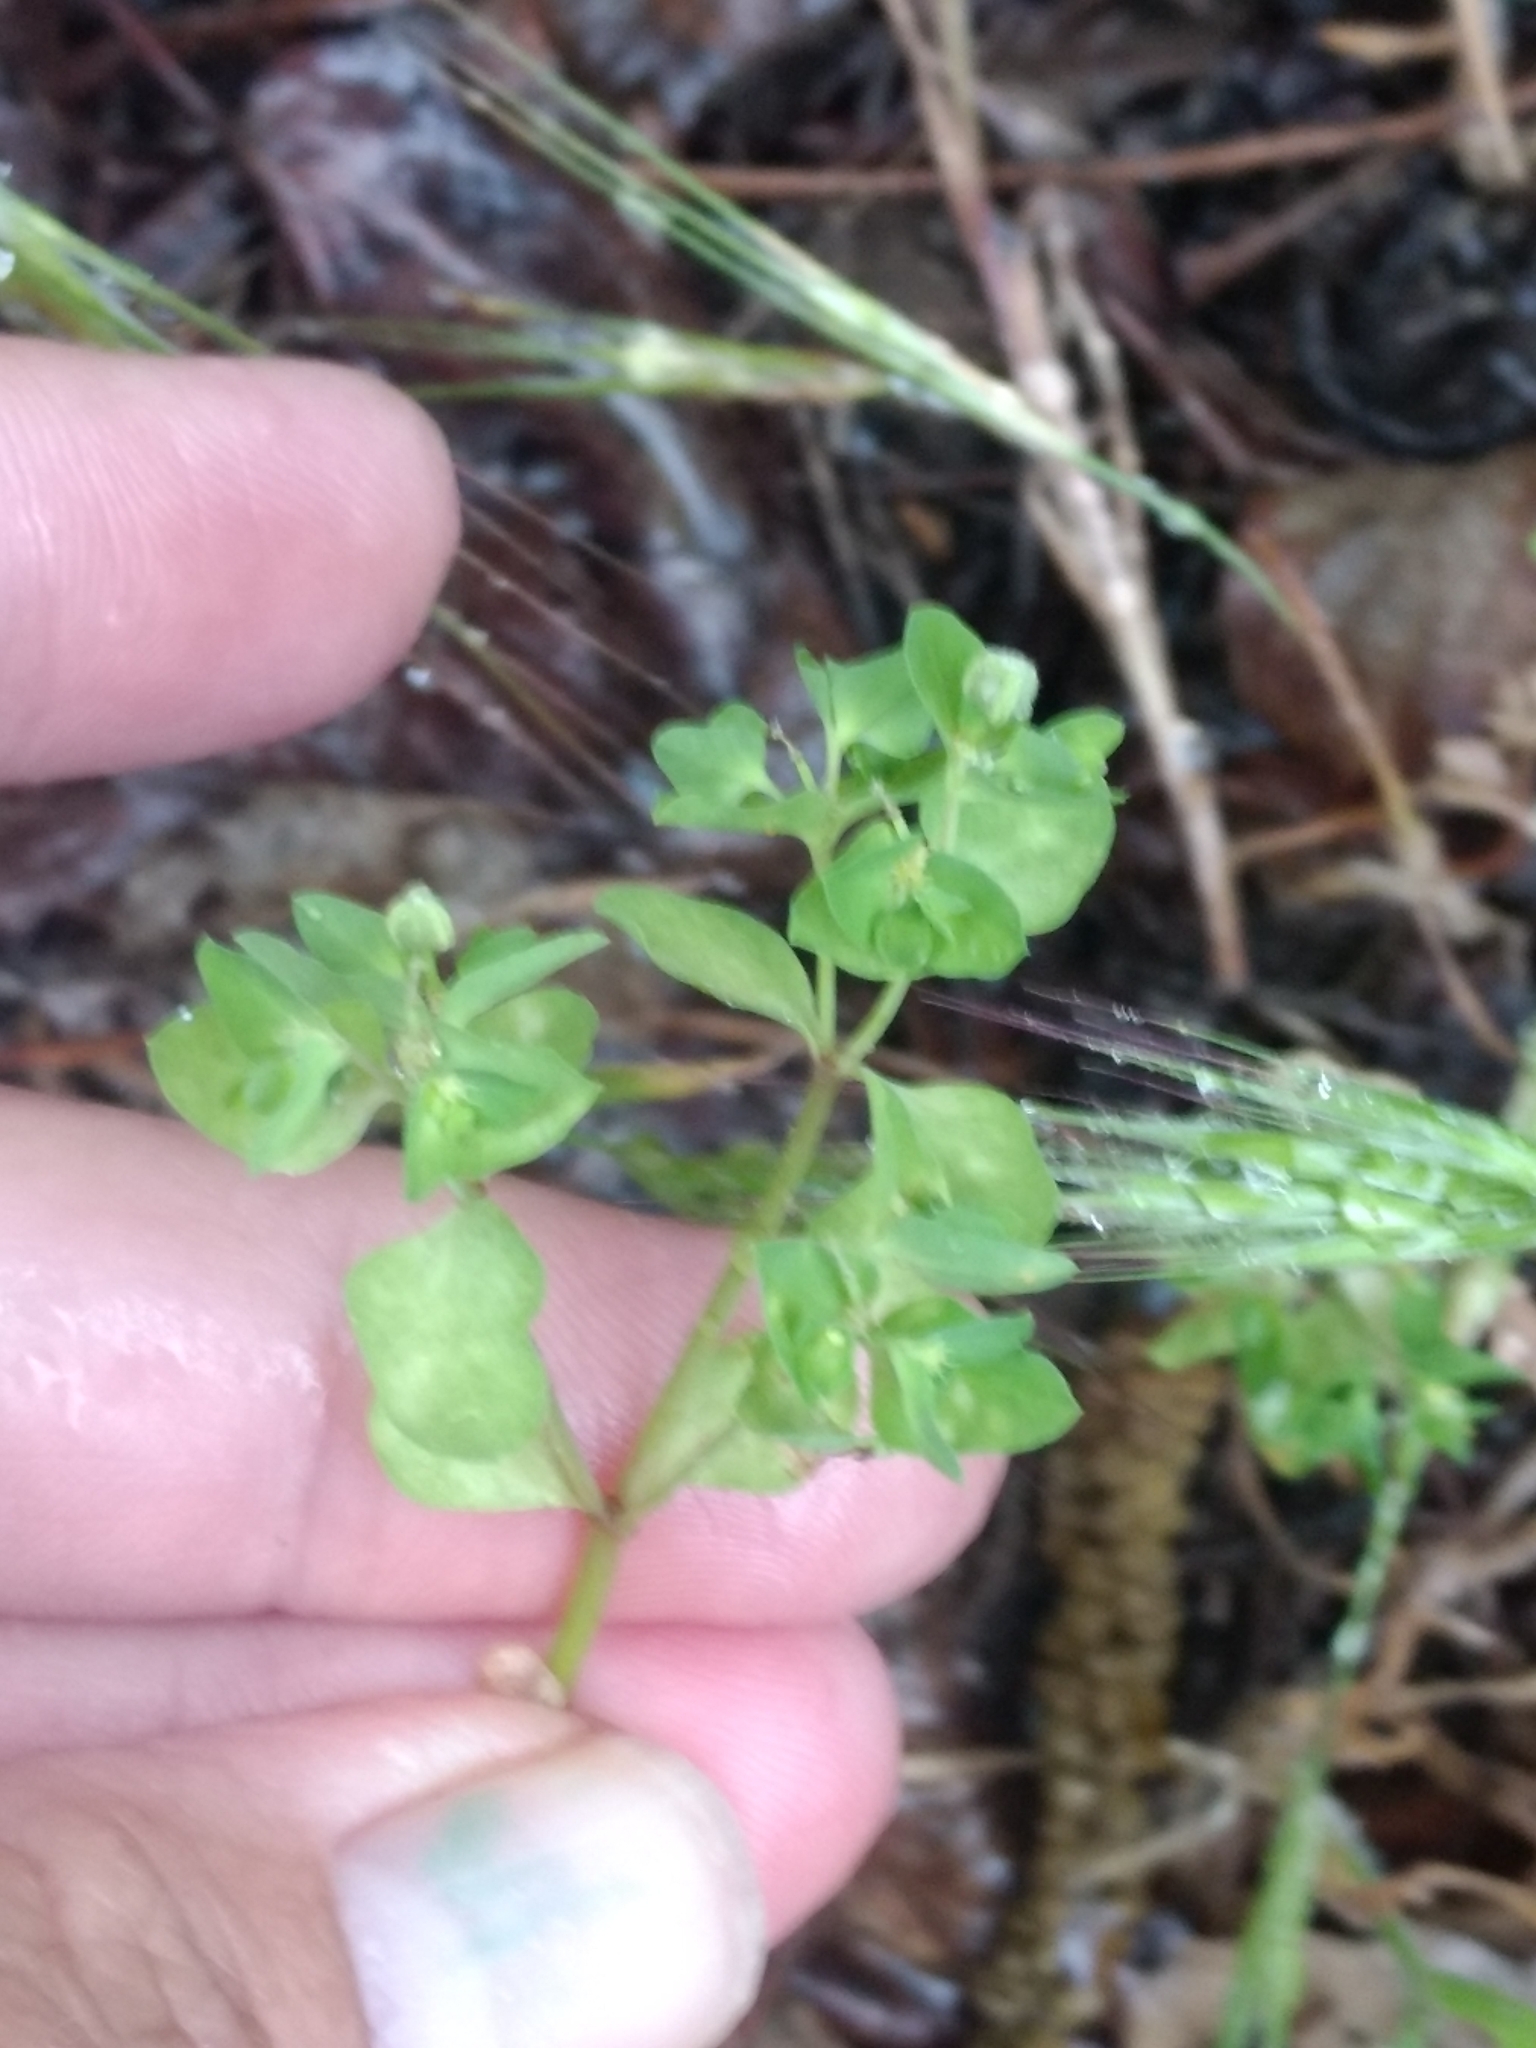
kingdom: Plantae
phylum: Tracheophyta
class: Magnoliopsida
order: Malpighiales
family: Euphorbiaceae
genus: Euphorbia
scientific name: Euphorbia peplus
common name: Petty spurge
